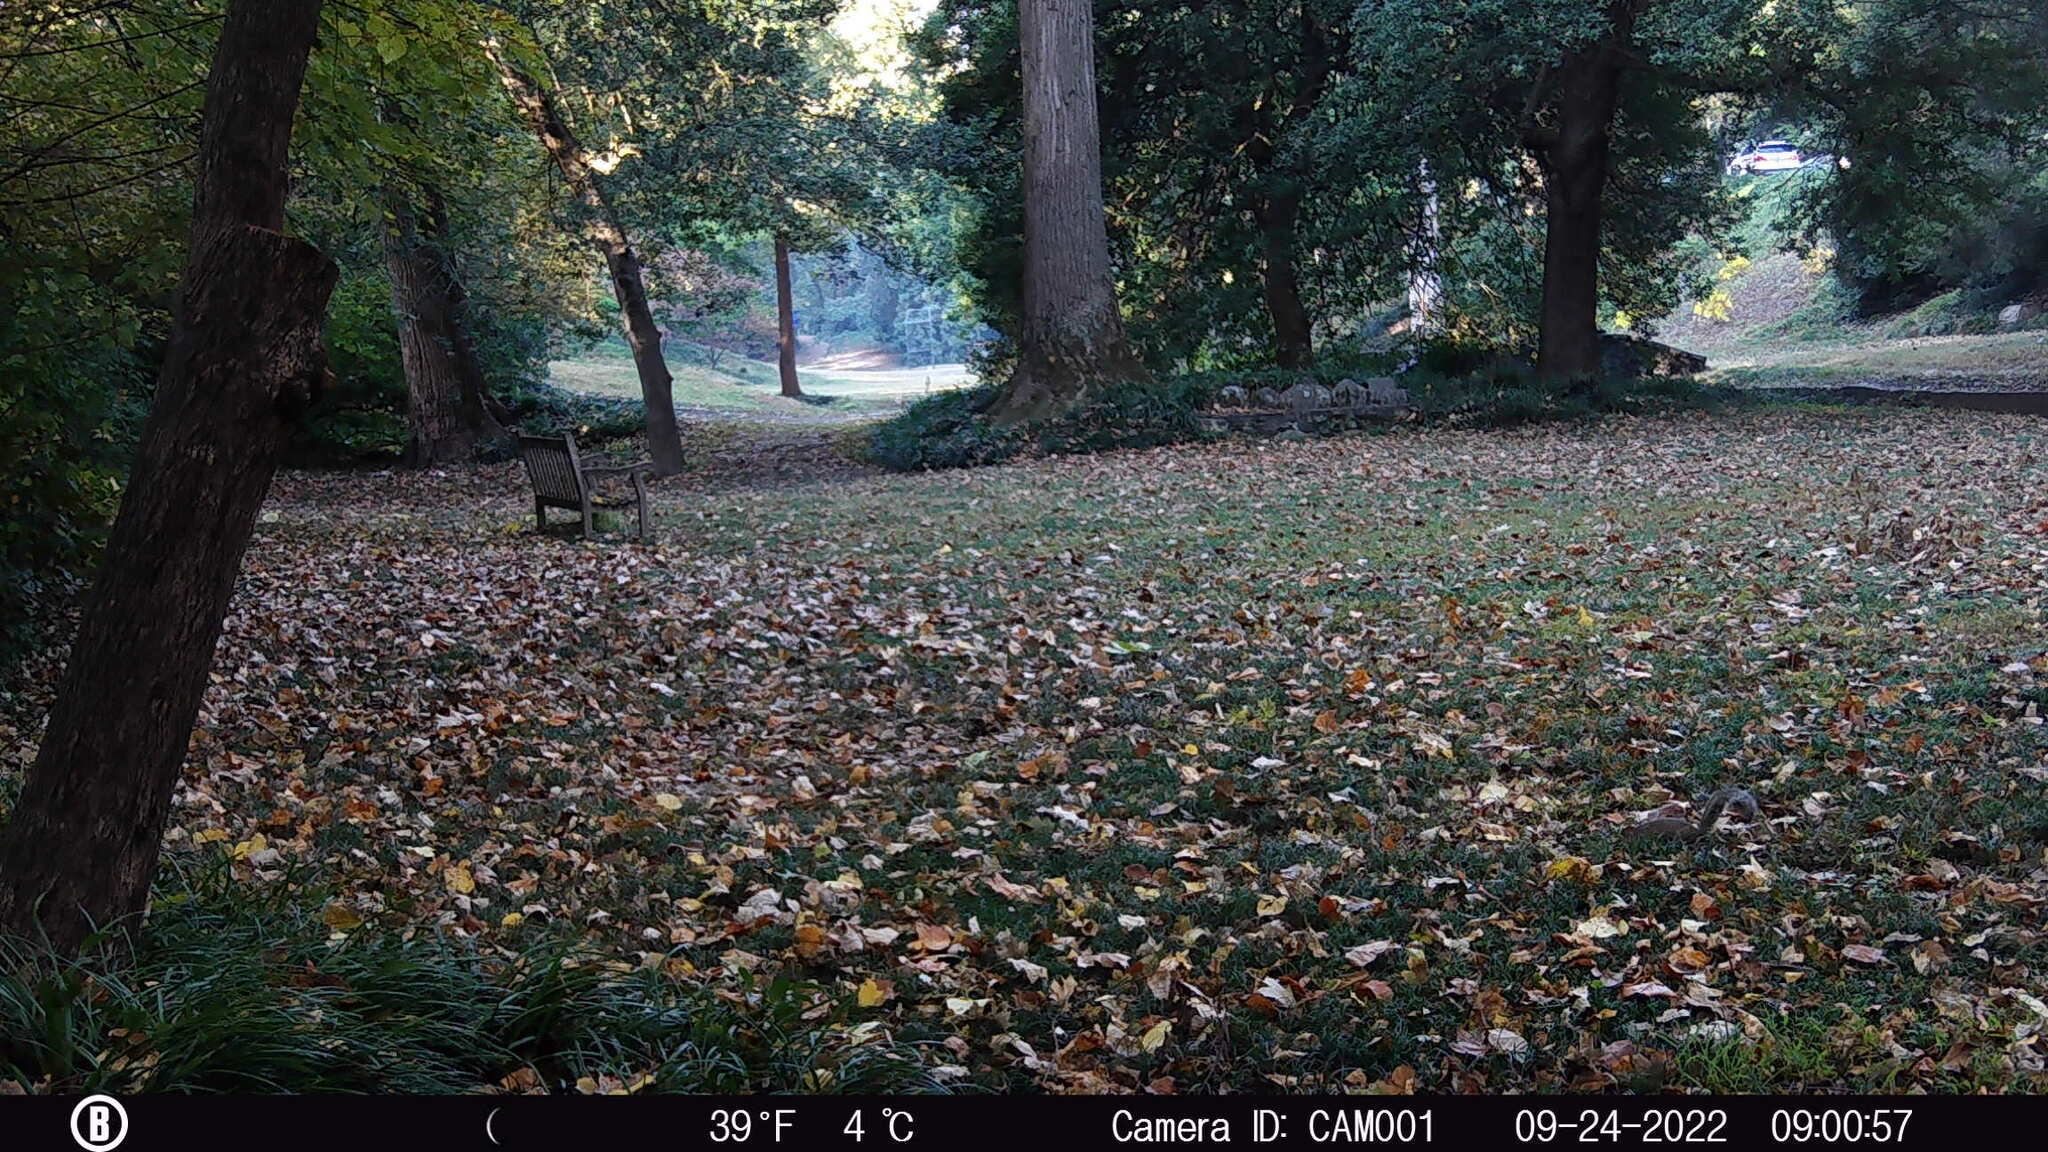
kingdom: Animalia
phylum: Chordata
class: Mammalia
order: Rodentia
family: Sciuridae
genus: Sciurus
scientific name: Sciurus carolinensis
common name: Eastern gray squirrel
